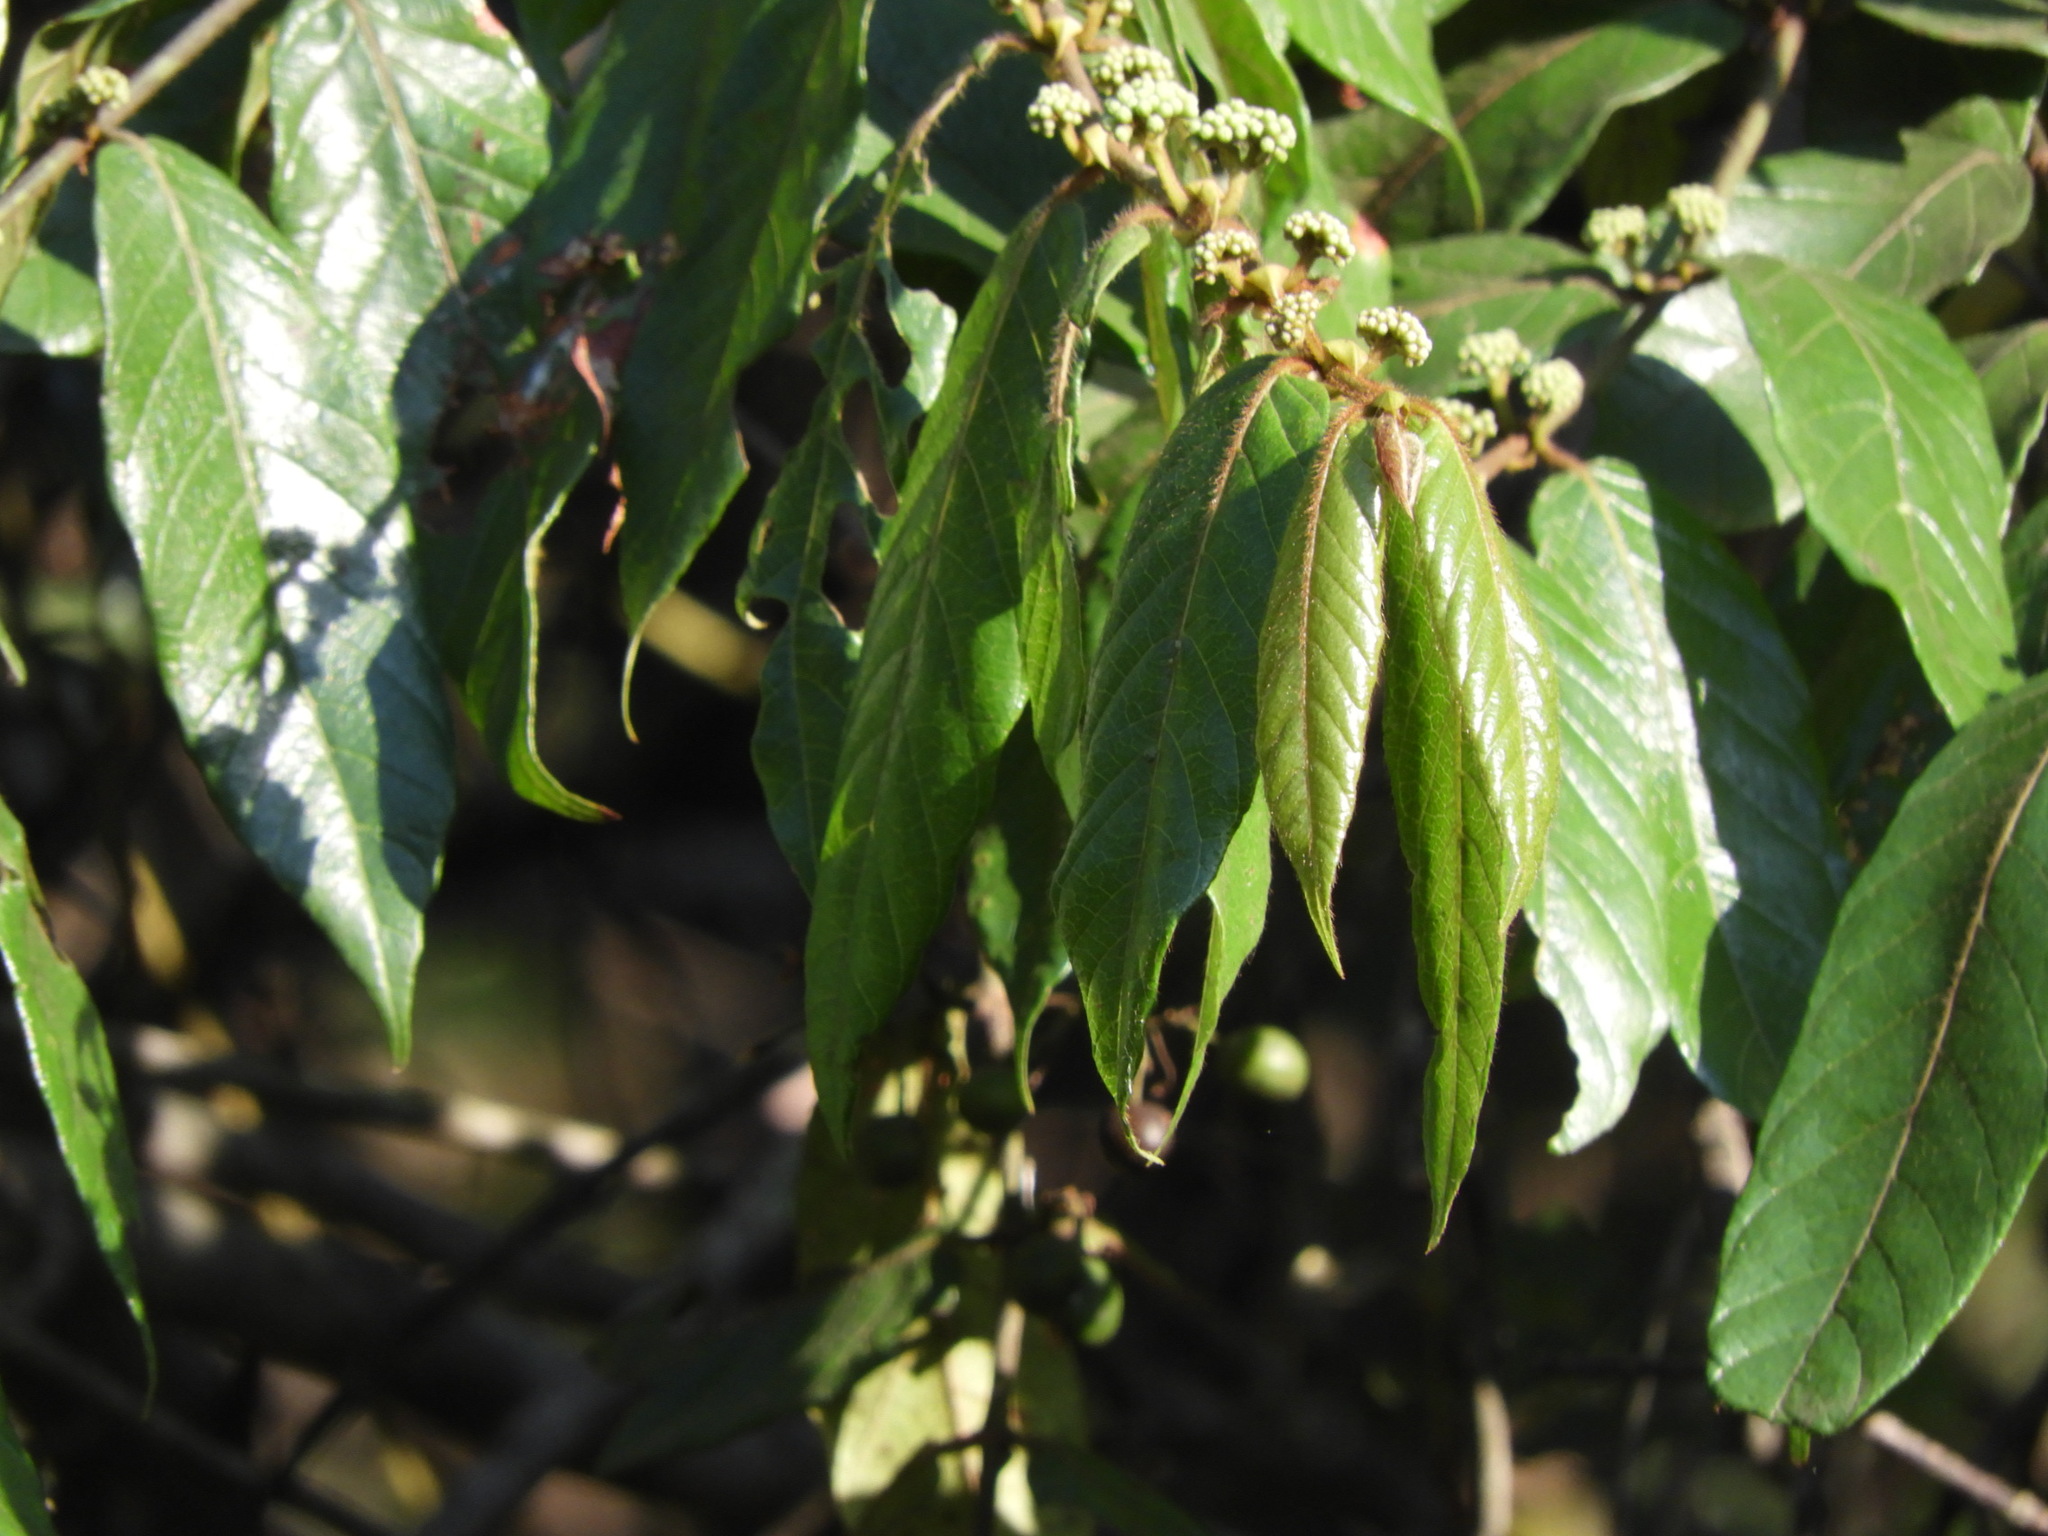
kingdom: Plantae
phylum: Tracheophyta
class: Magnoliopsida
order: Gentianales
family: Rubiaceae
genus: Keetia
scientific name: Keetia gueinzii
